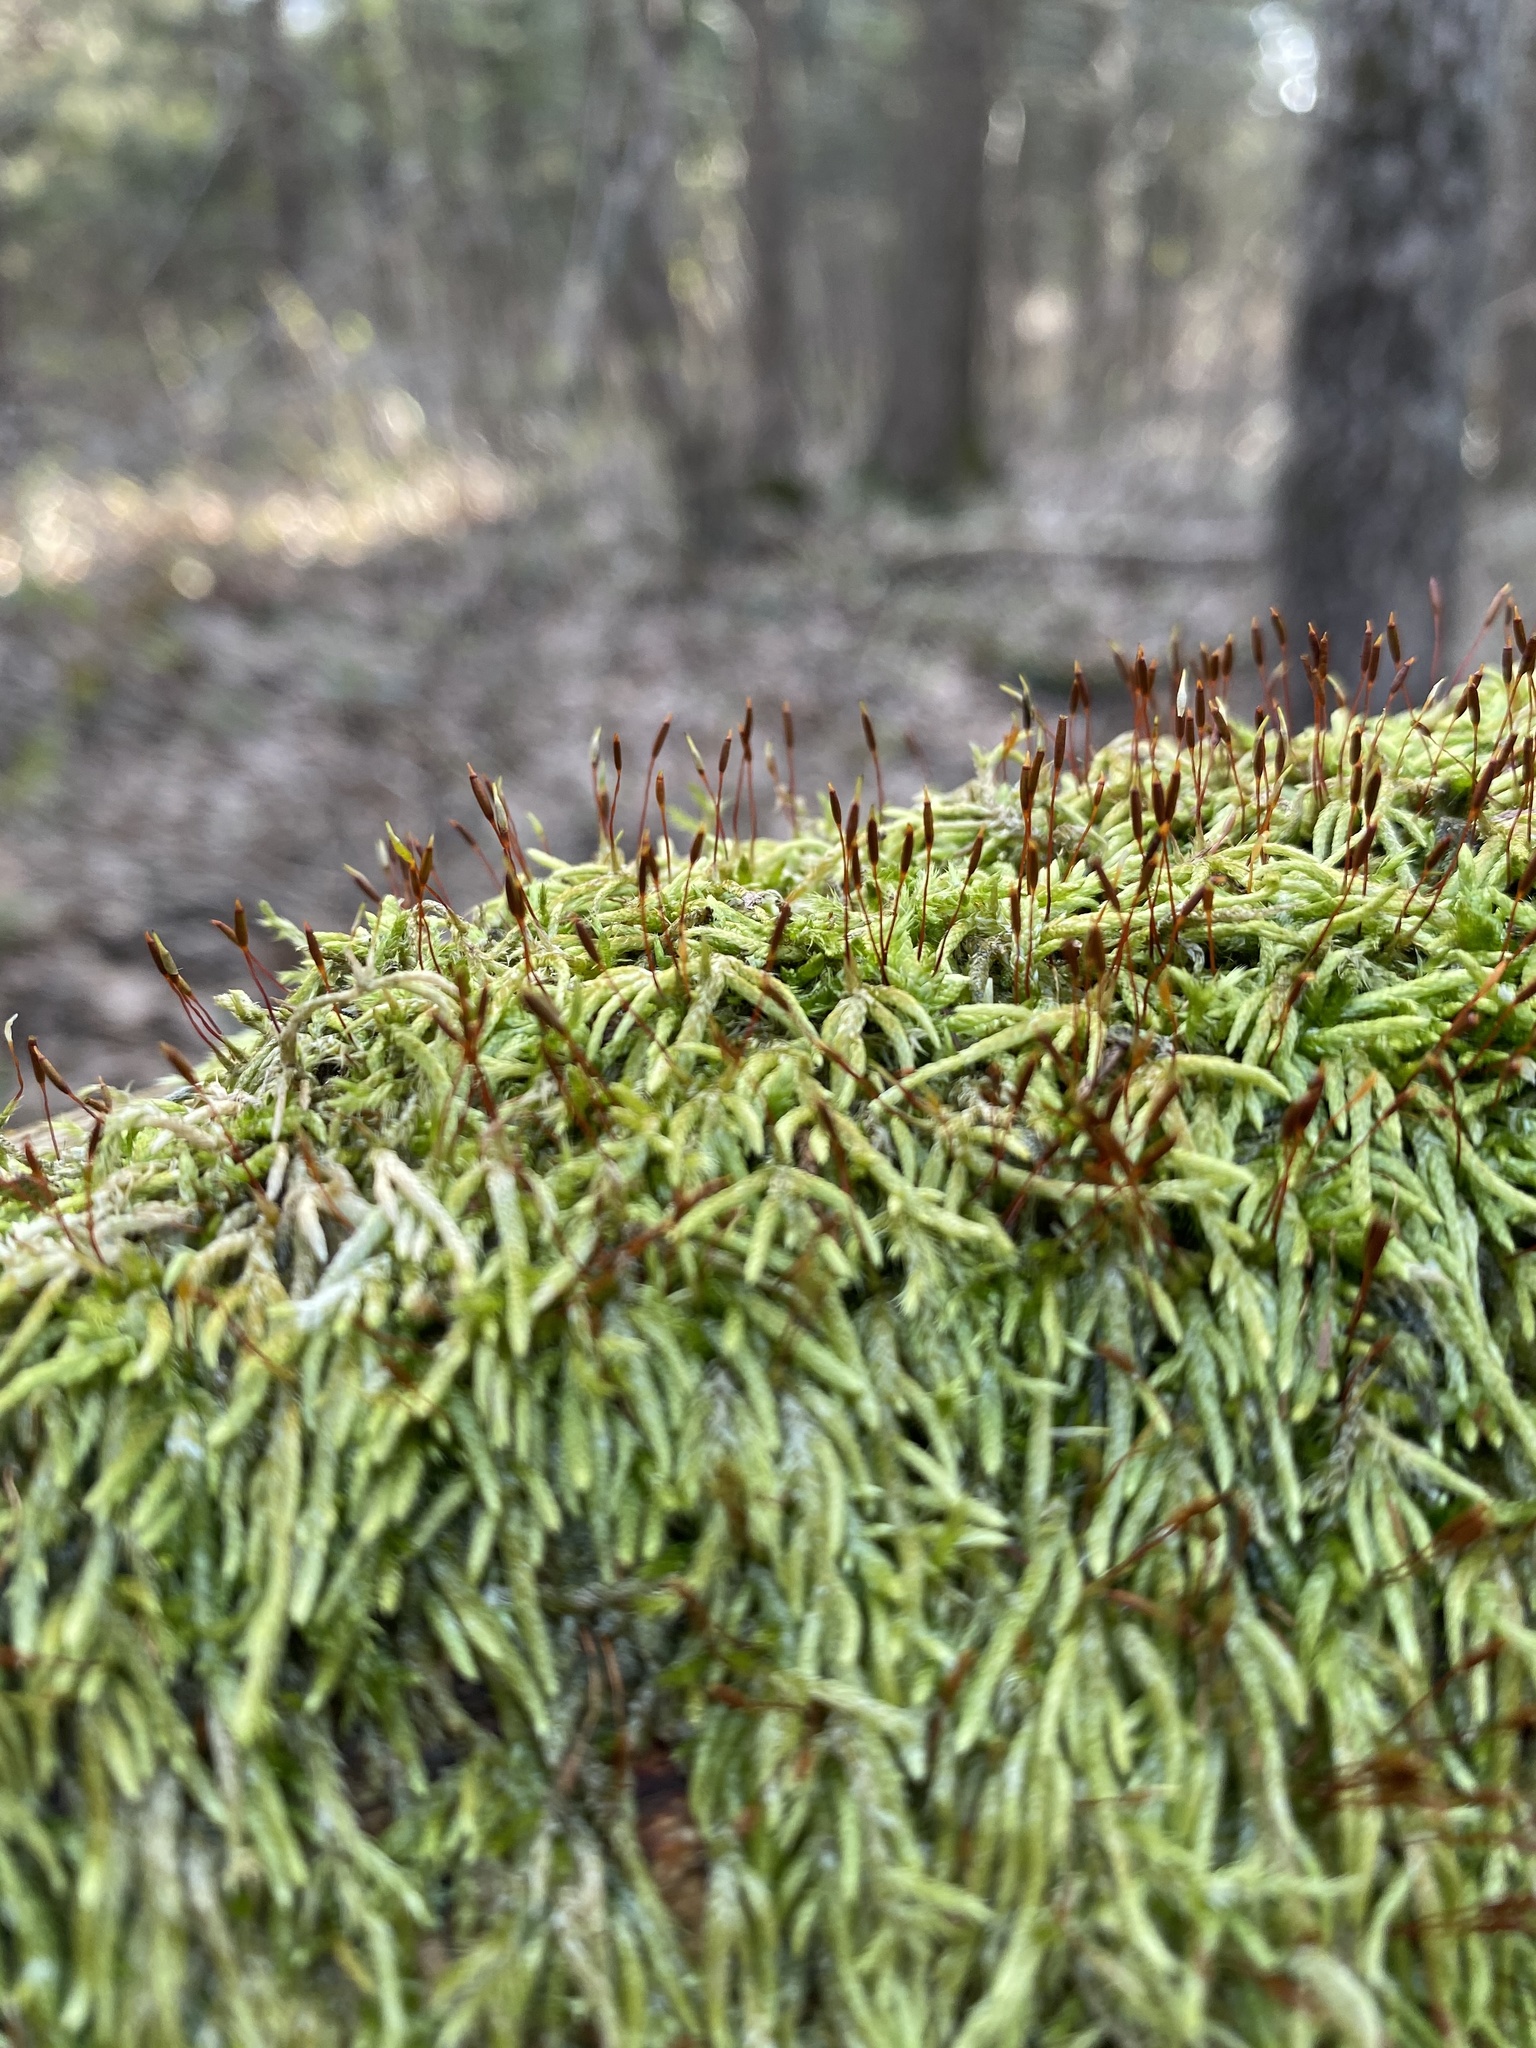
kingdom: Plantae
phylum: Bryophyta
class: Bryopsida
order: Hypnales
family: Entodontaceae
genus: Entodon
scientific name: Entodon seductrix
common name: Round-stemmed entodon moss
